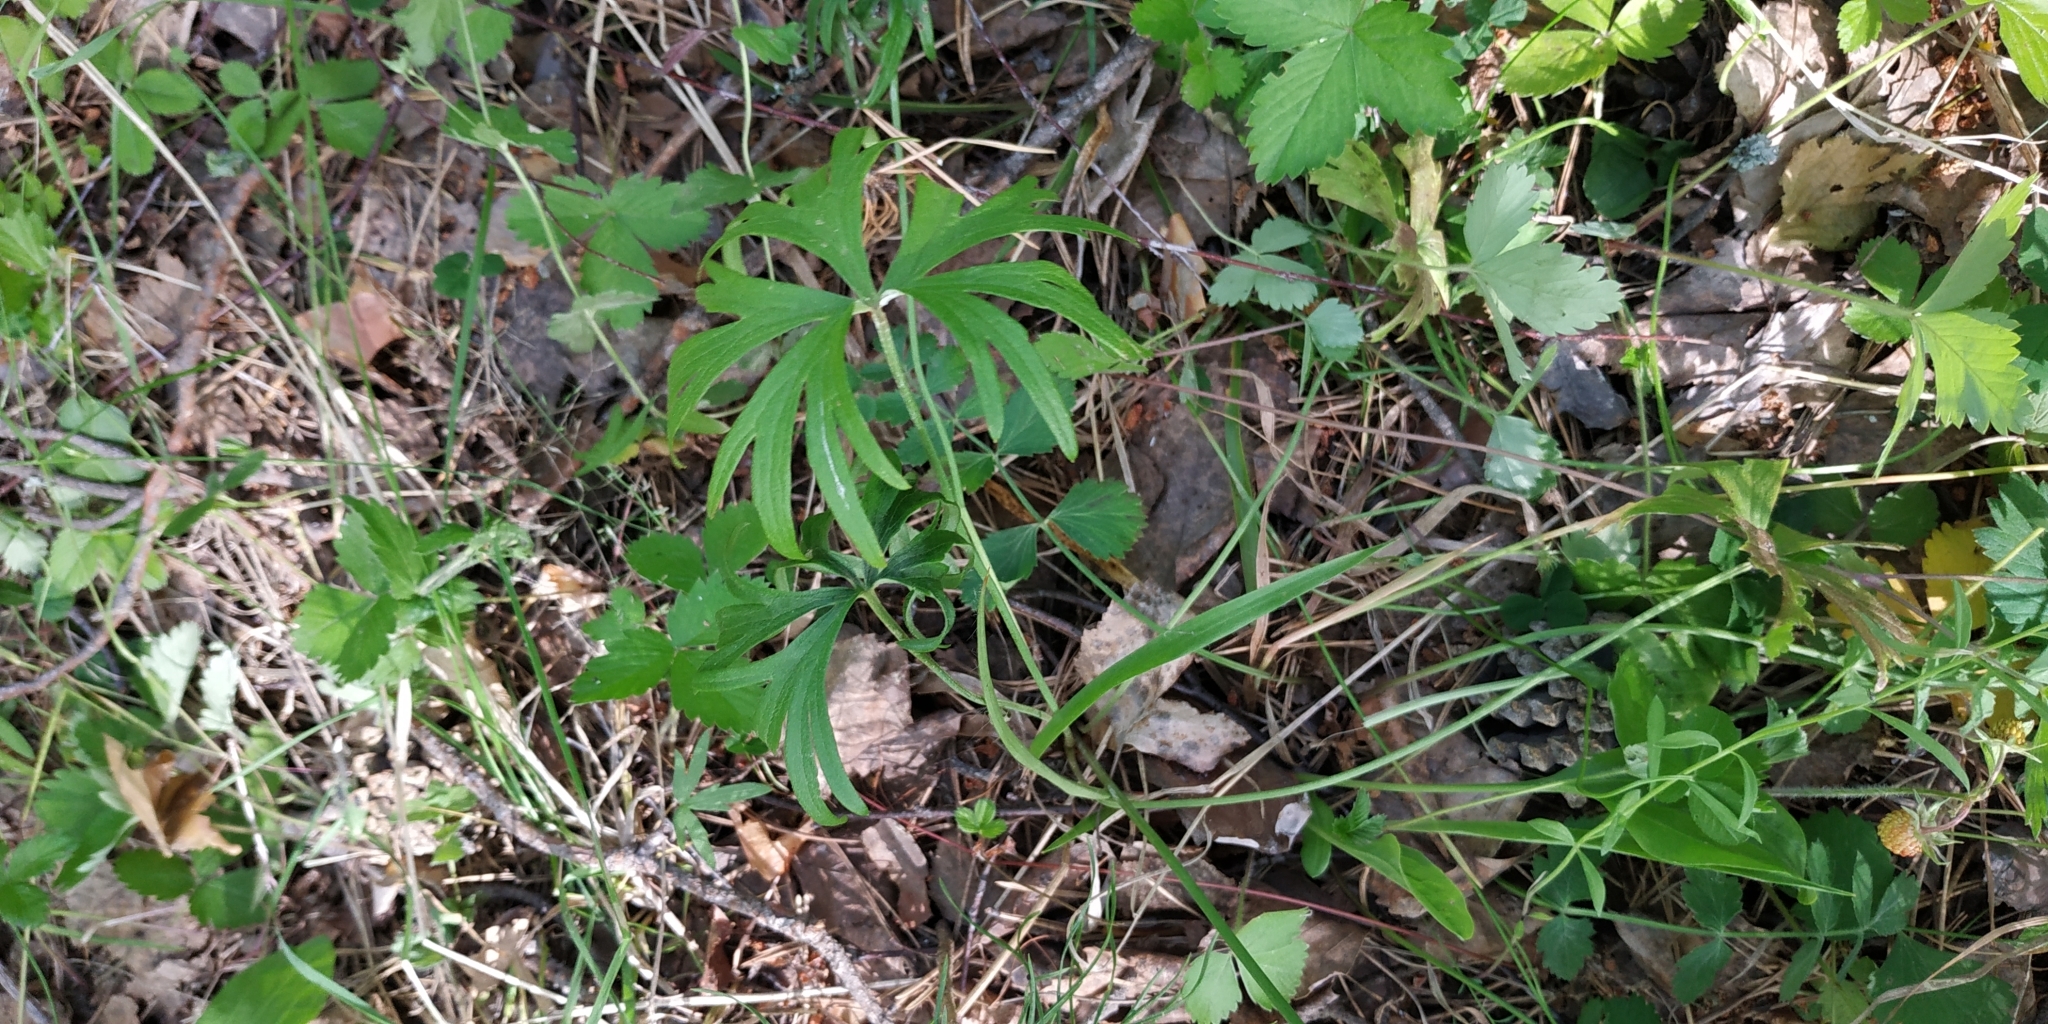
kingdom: Plantae
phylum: Tracheophyta
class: Magnoliopsida
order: Ranunculales
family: Ranunculaceae
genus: Ranunculus
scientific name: Ranunculus acris
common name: Meadow buttercup
